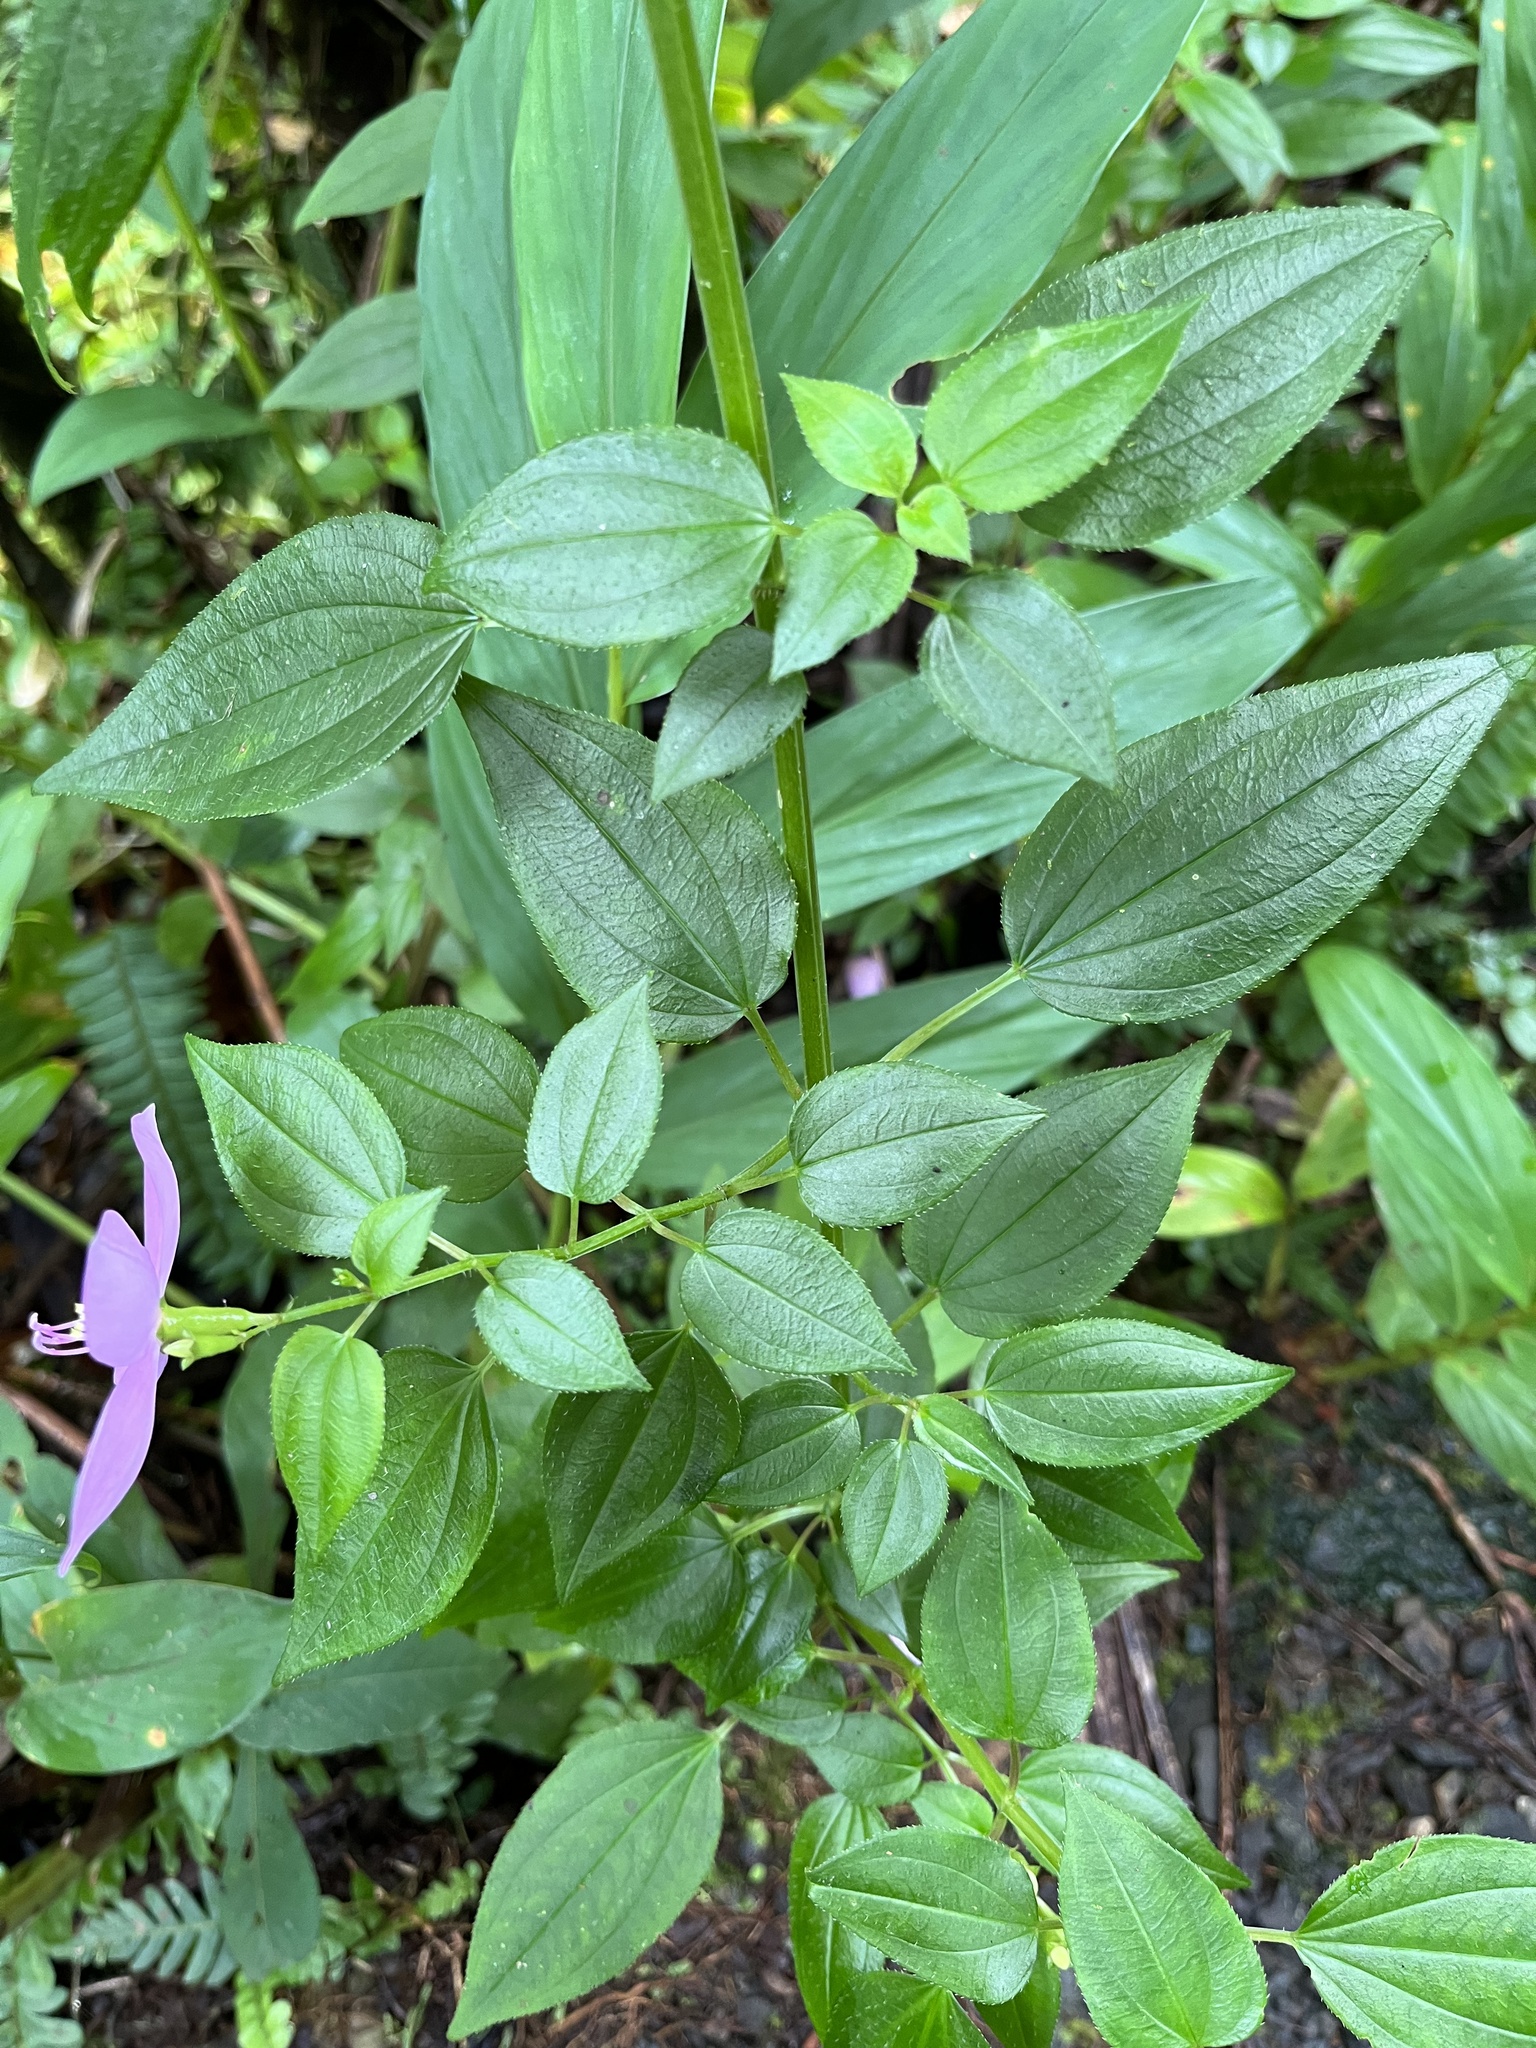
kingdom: Plantae
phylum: Tracheophyta
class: Magnoliopsida
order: Myrtales
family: Melastomataceae
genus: Arthrostemma
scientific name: Arthrostemma ciliatum
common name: Everblooming eavender
